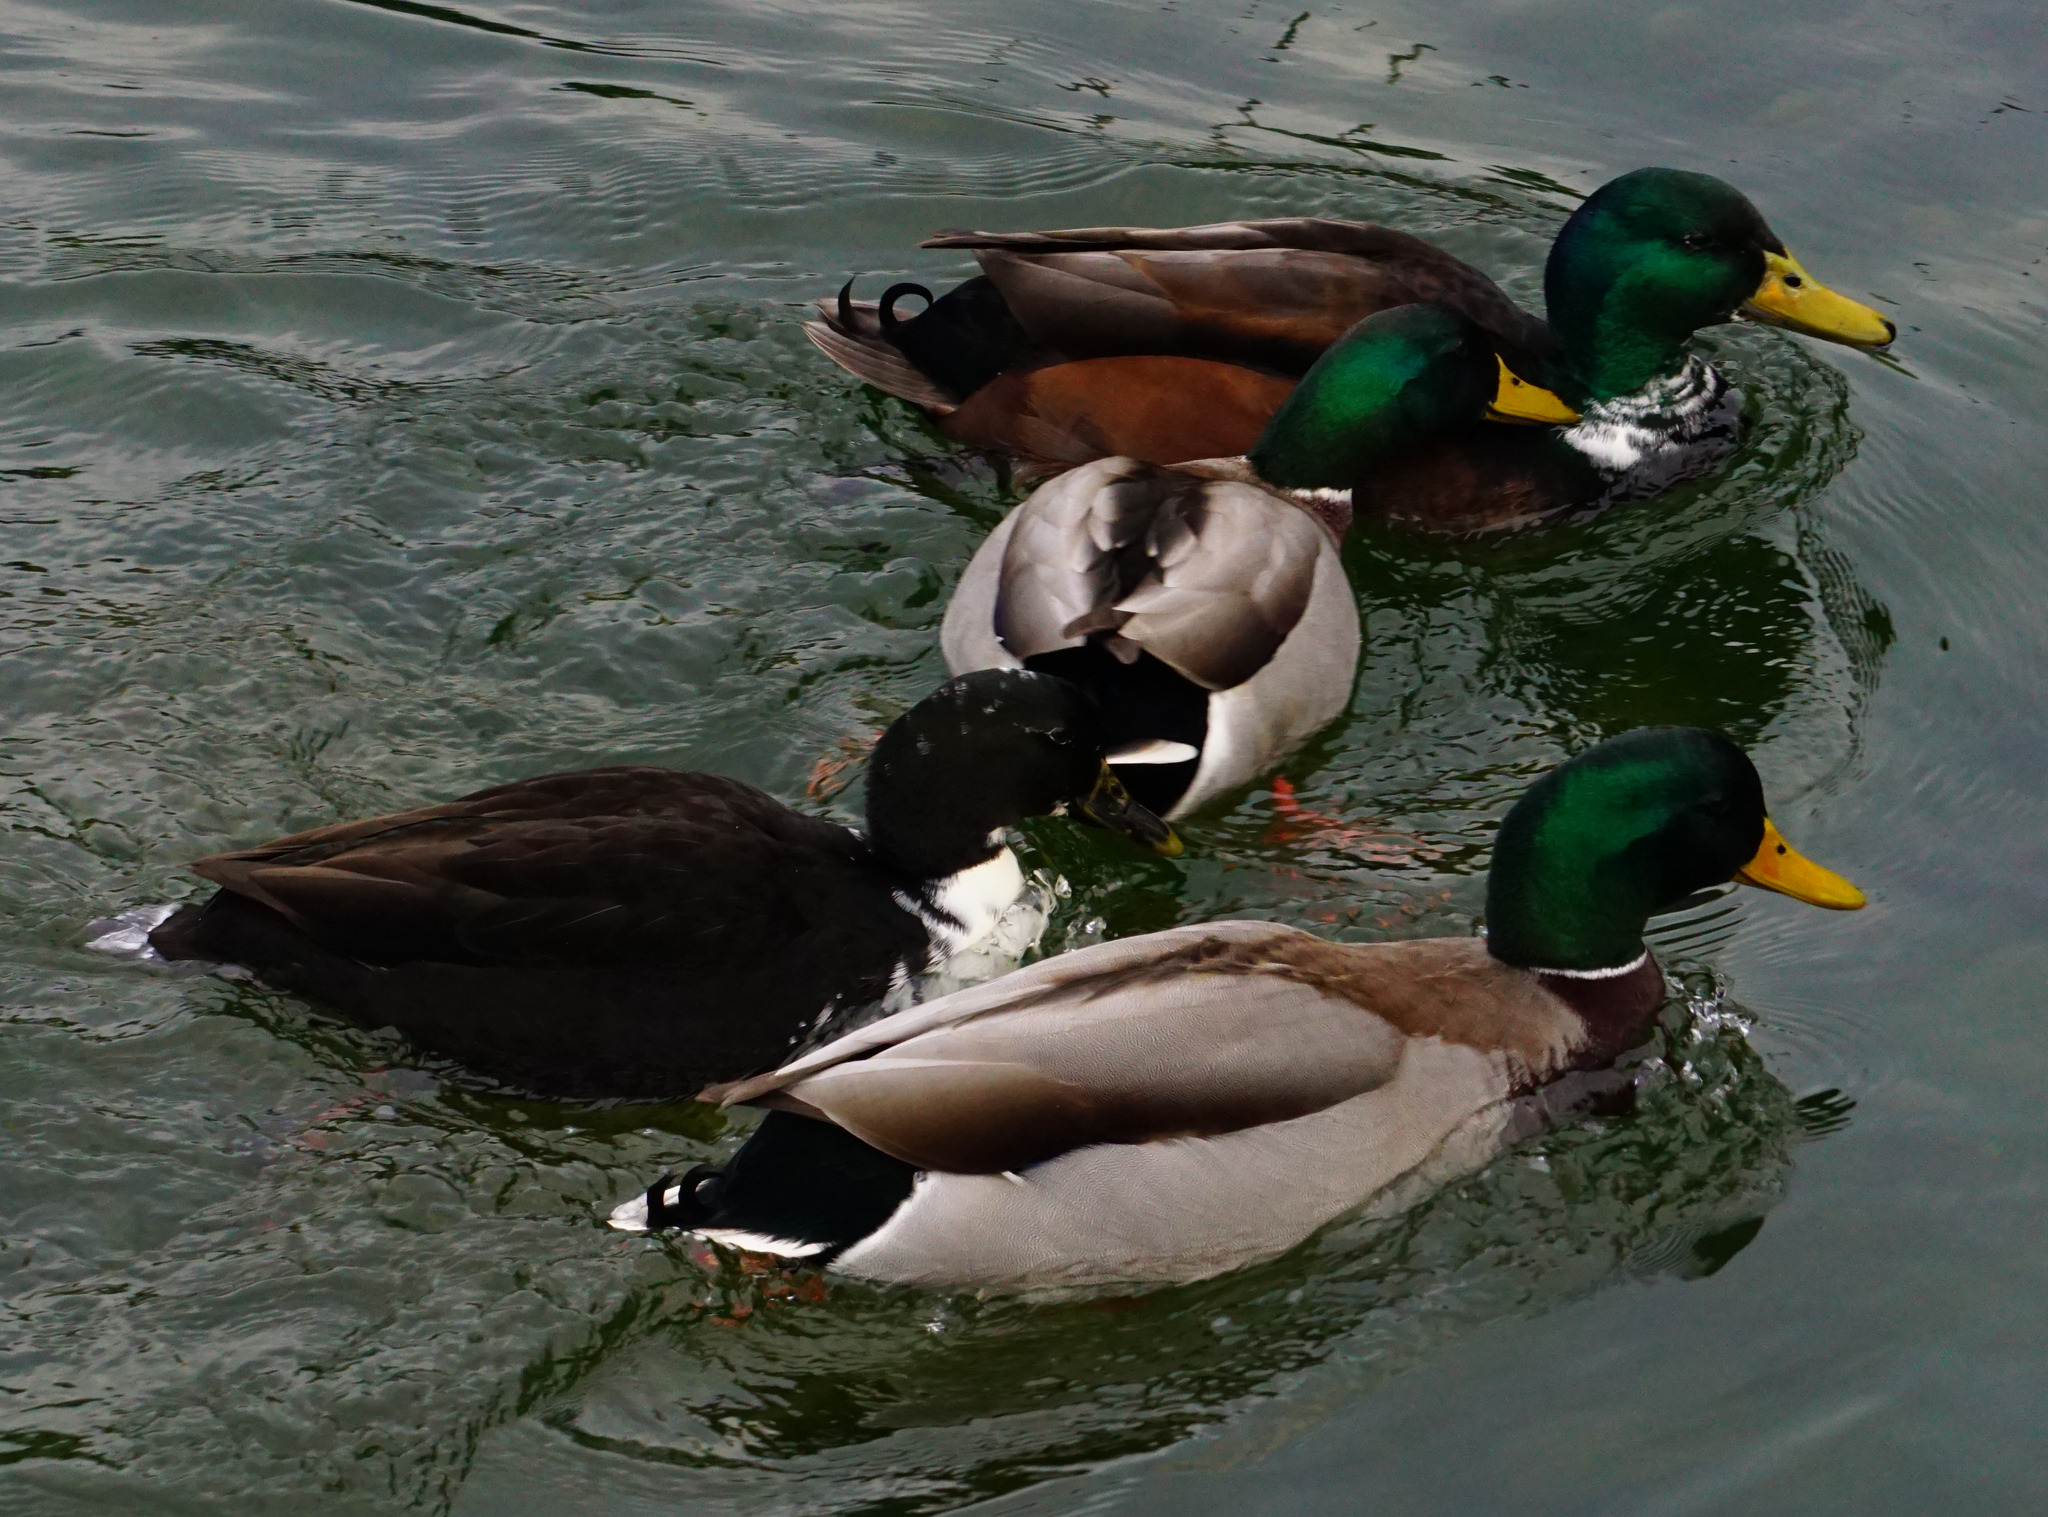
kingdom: Animalia
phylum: Chordata
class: Aves
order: Anseriformes
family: Anatidae
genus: Anas
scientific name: Anas platyrhynchos
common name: Mallard
